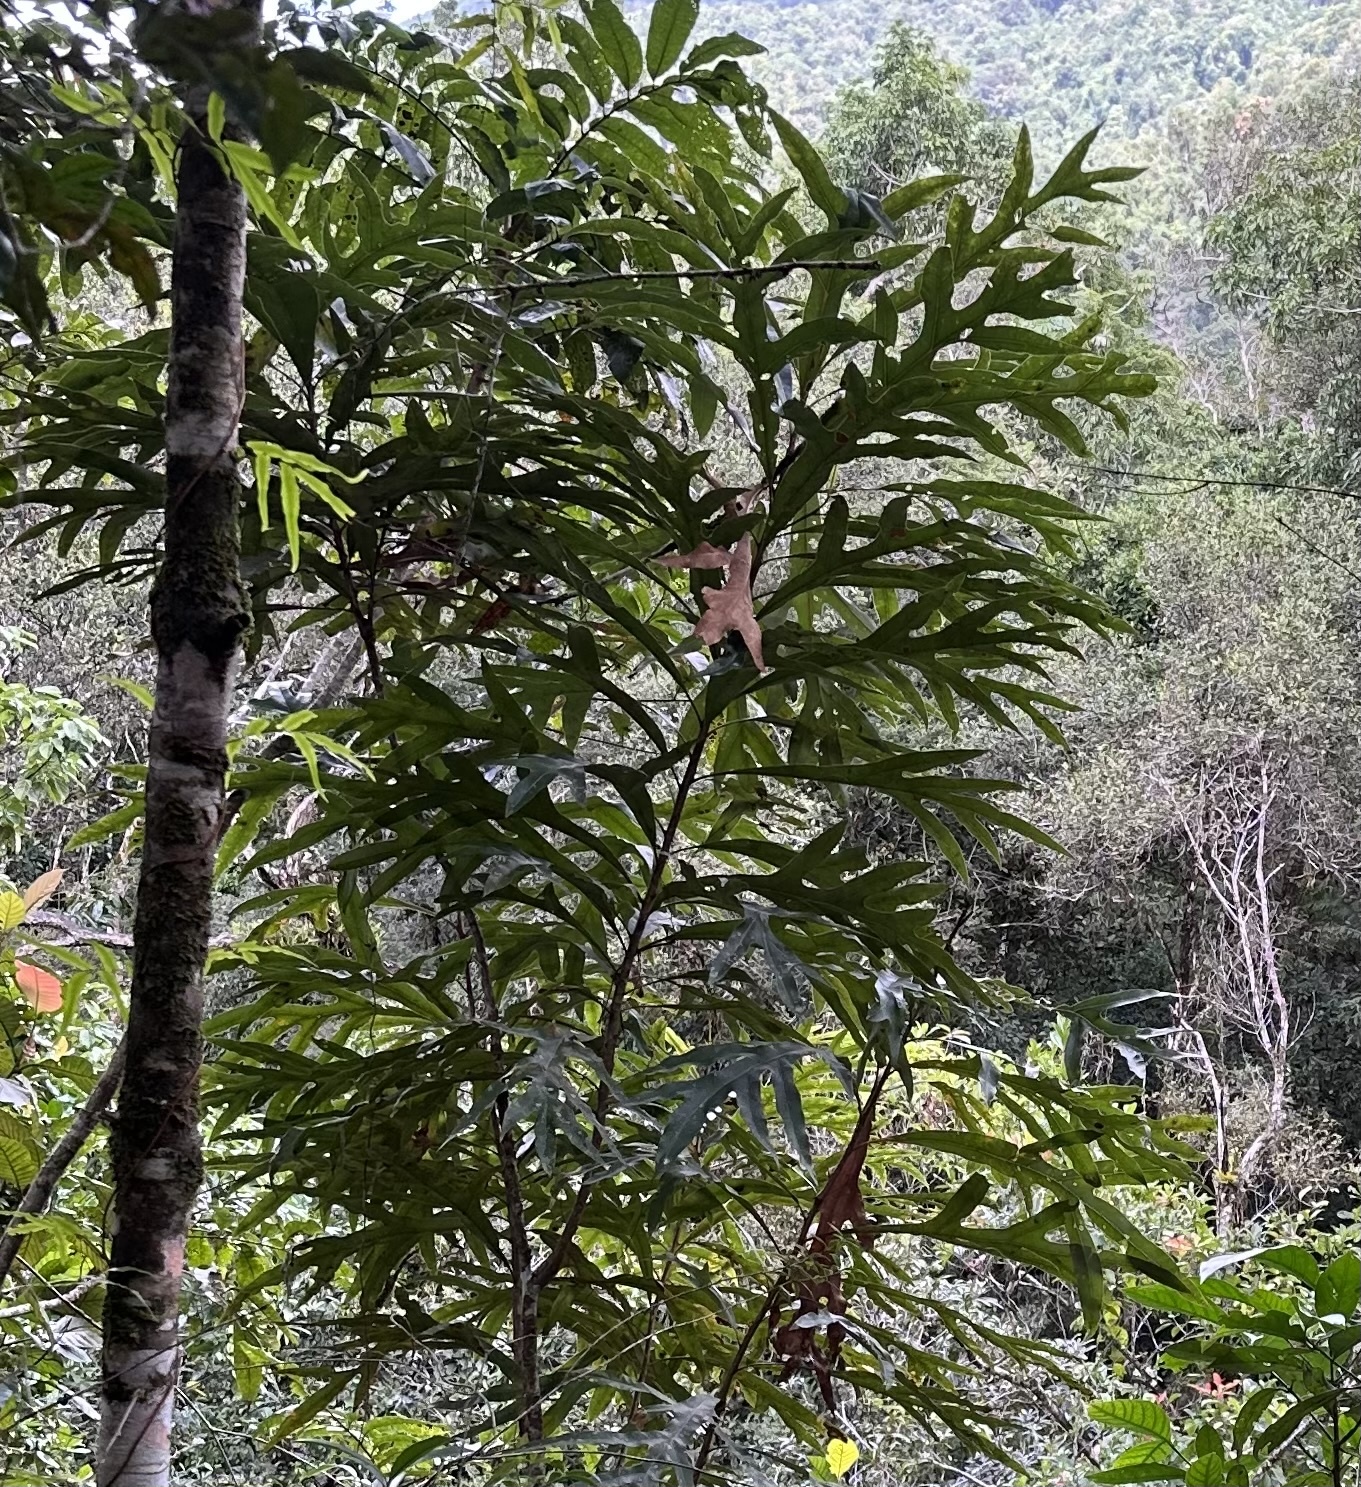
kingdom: Plantae
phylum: Tracheophyta
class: Magnoliopsida
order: Proteales
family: Proteaceae
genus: Stenocarpus
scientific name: Stenocarpus sinuatus
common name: Queensland fire-wheel-tree
